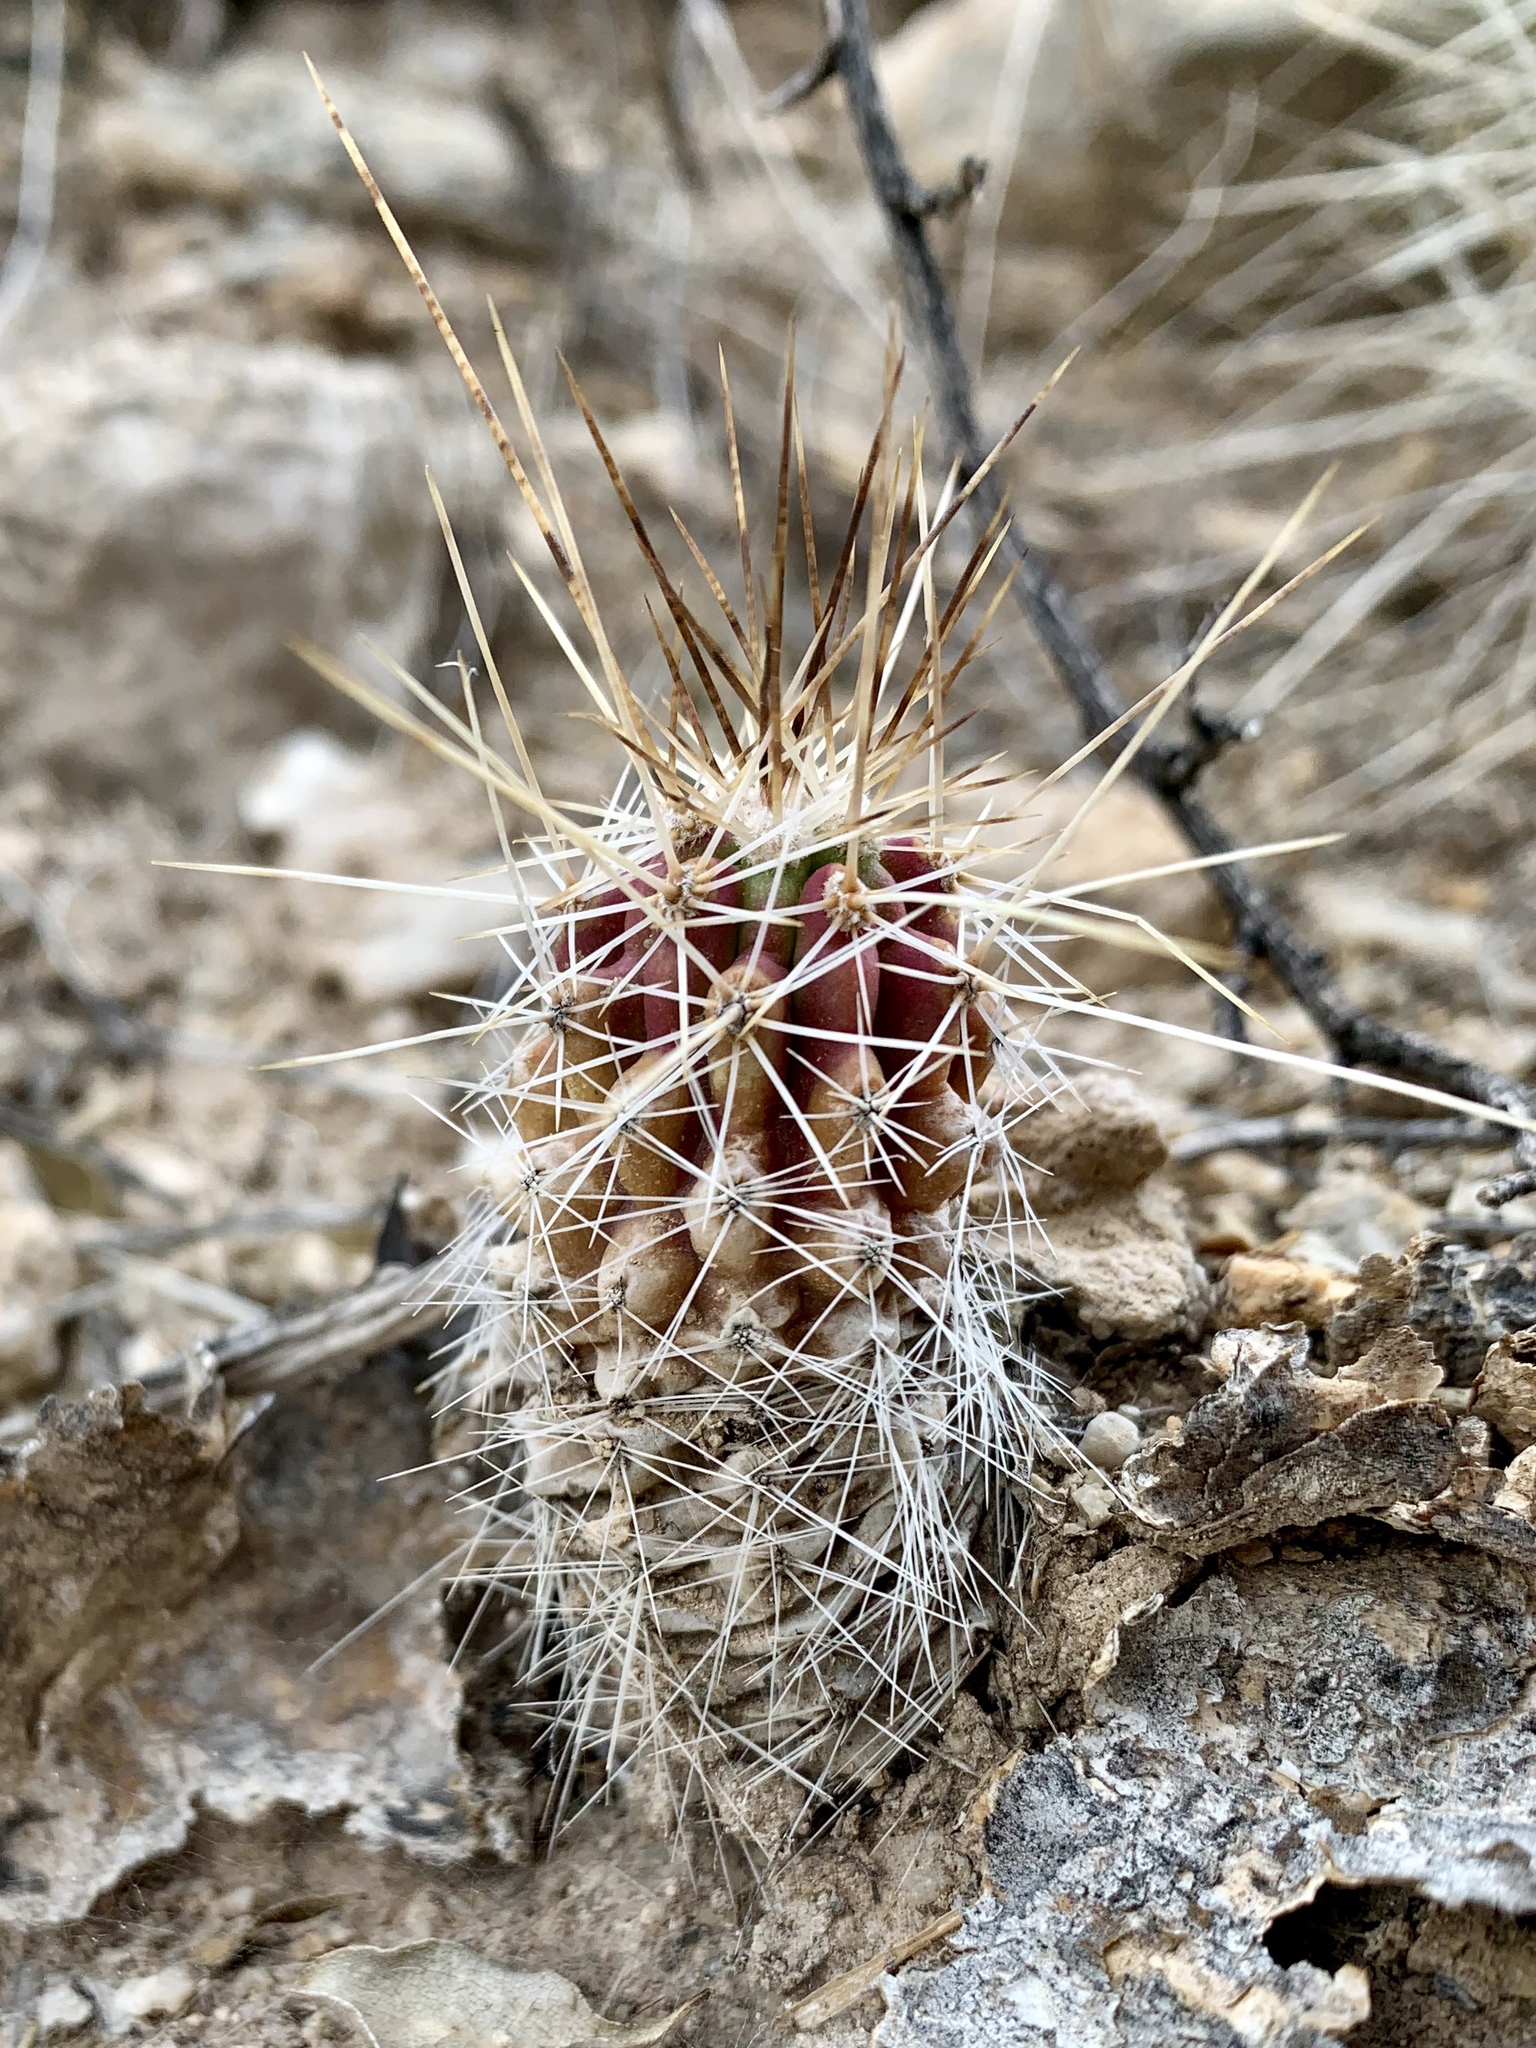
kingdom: Plantae
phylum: Tracheophyta
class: Magnoliopsida
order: Caryophyllales
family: Cactaceae
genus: Echinocereus
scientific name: Echinocereus stramineus
